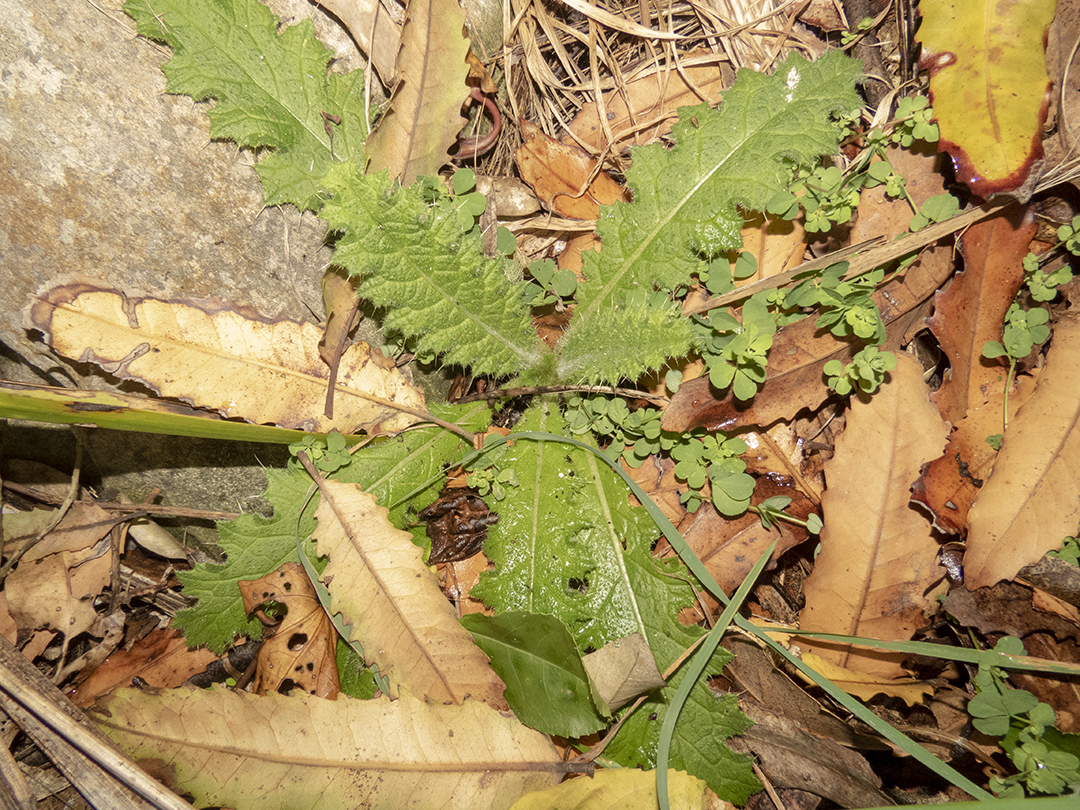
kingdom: Plantae
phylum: Tracheophyta
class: Magnoliopsida
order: Asterales
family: Asteraceae
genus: Cirsium
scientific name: Cirsium vulgare
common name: Bull thistle
